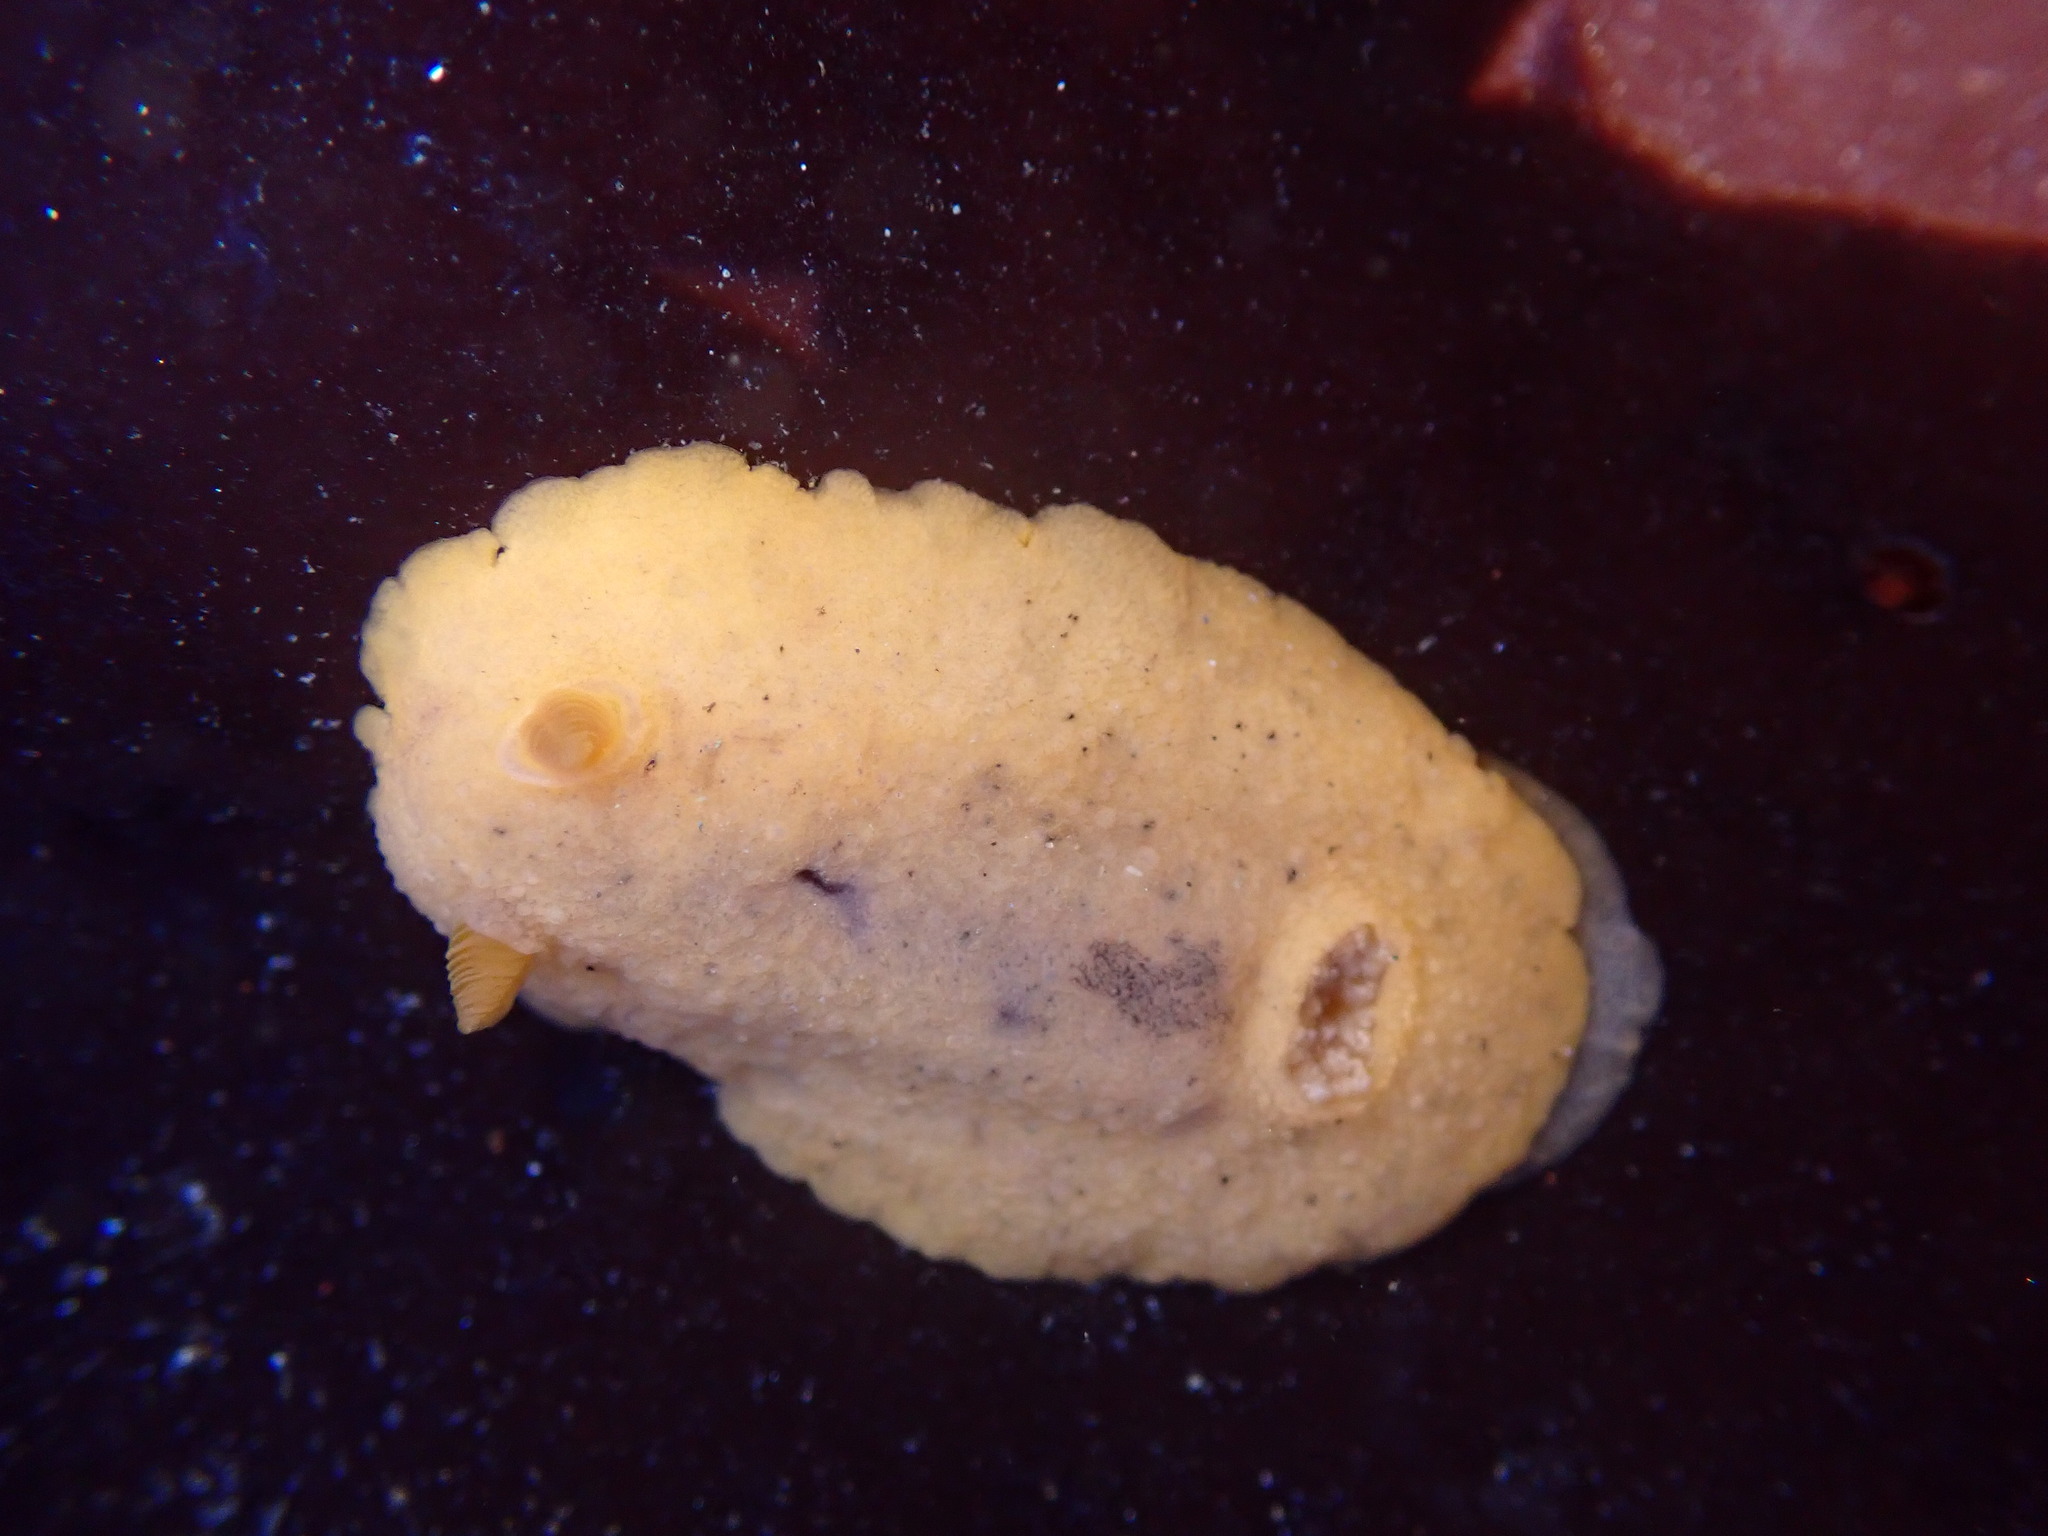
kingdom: Animalia
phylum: Mollusca
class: Gastropoda
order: Nudibranchia
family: Discodorididae
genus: Geitodoris
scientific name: Geitodoris heathi
